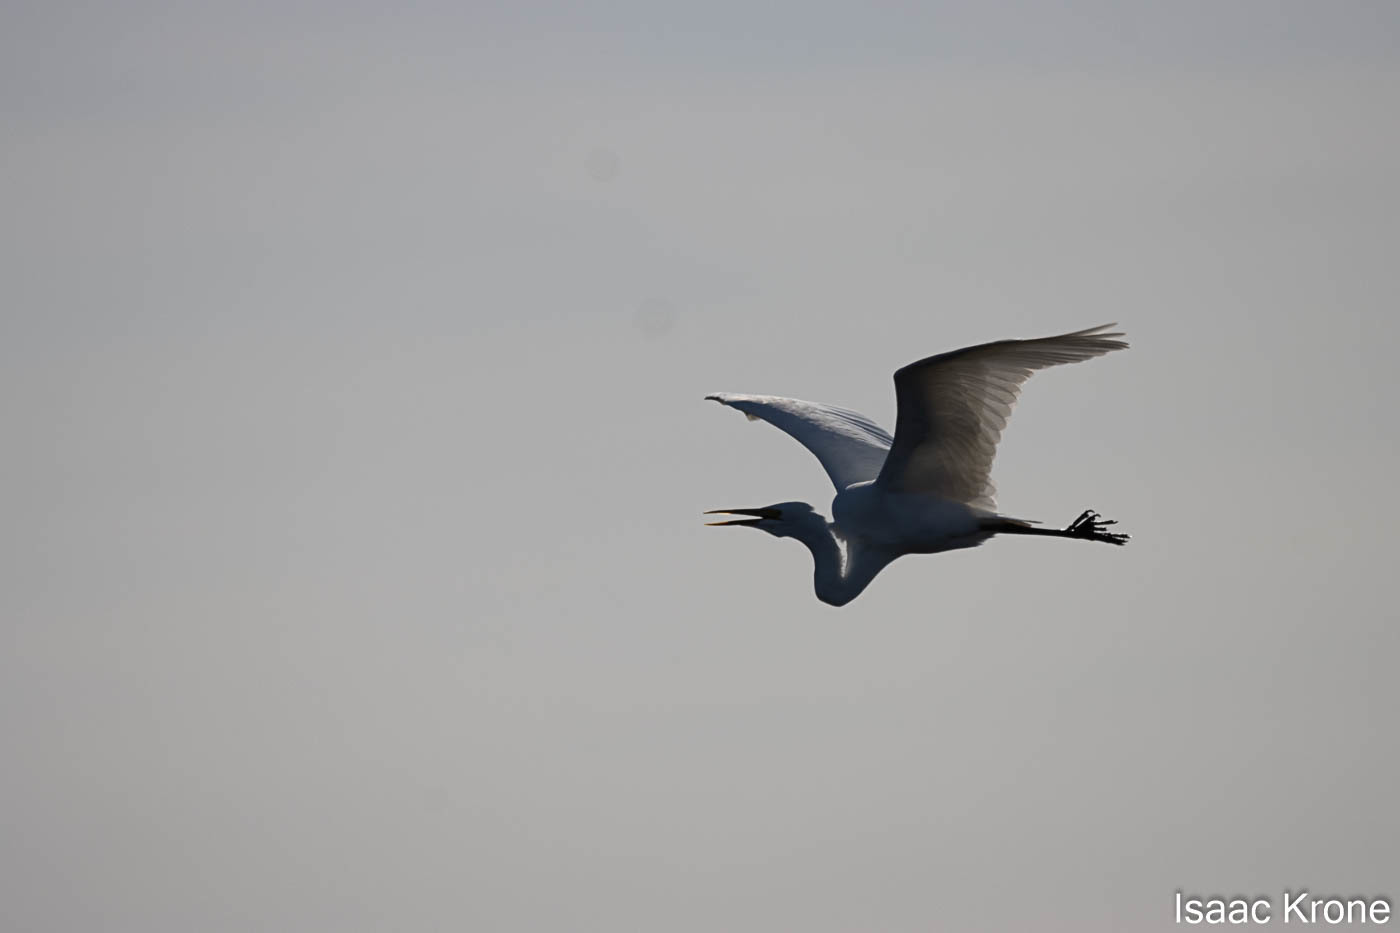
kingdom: Animalia
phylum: Chordata
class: Aves
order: Pelecaniformes
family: Ardeidae
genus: Ardea
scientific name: Ardea alba
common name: Great egret
